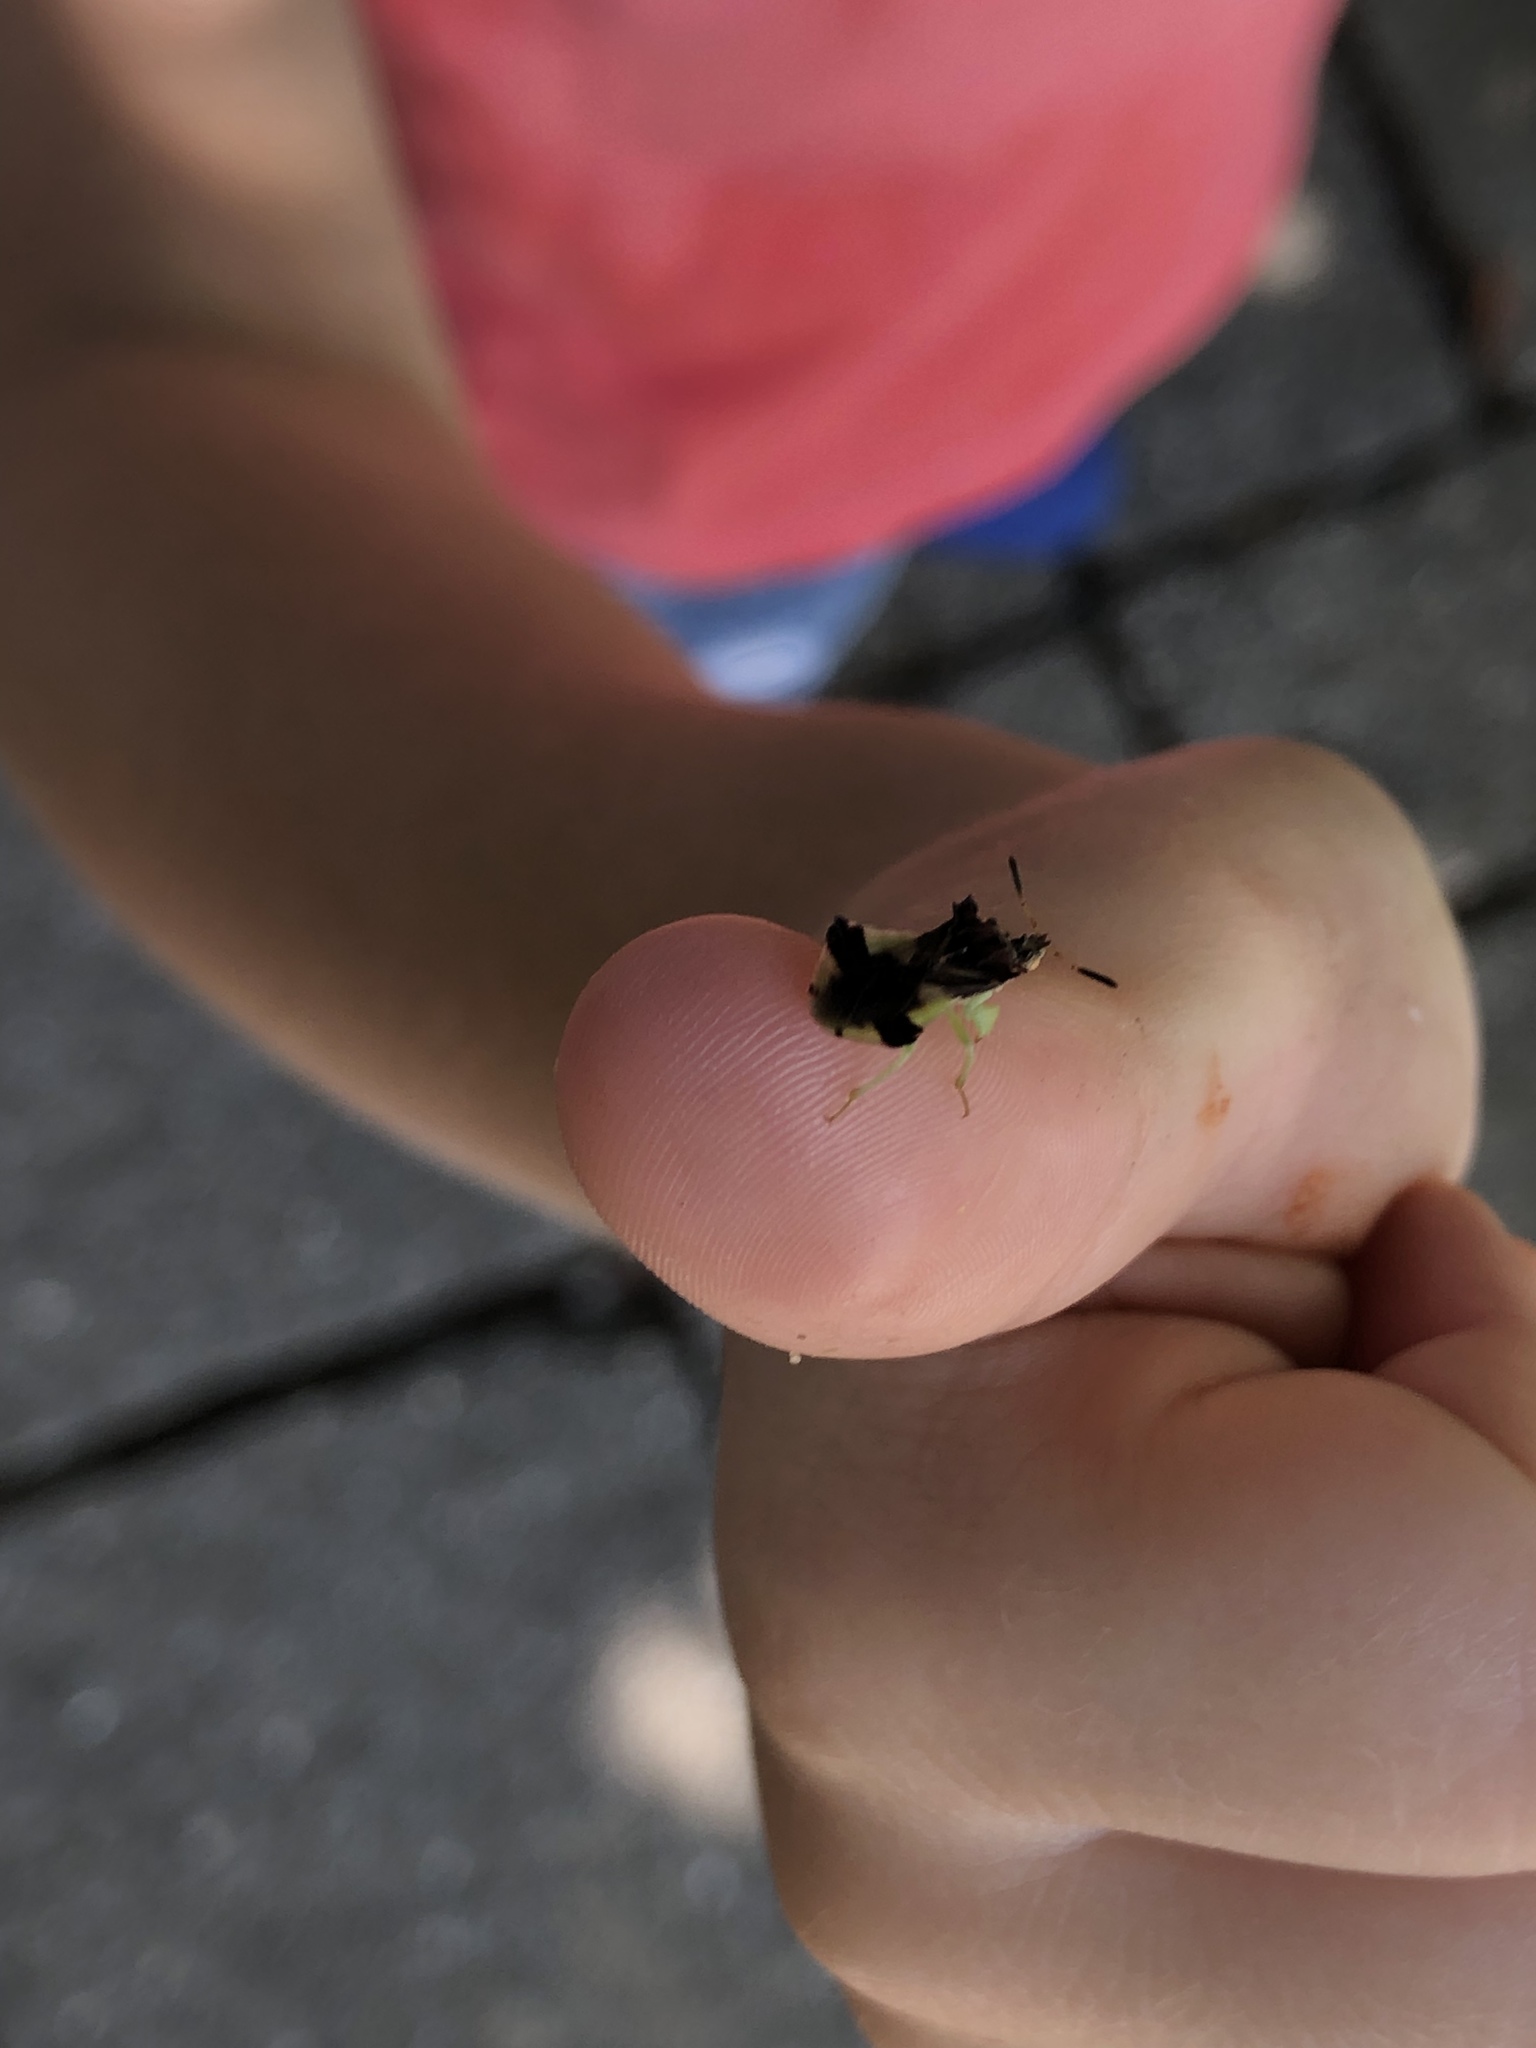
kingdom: Animalia
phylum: Arthropoda
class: Insecta
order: Hemiptera
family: Reduviidae
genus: Phymata
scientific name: Phymata pennsylvanica
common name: Pennsylvania ambush bug
